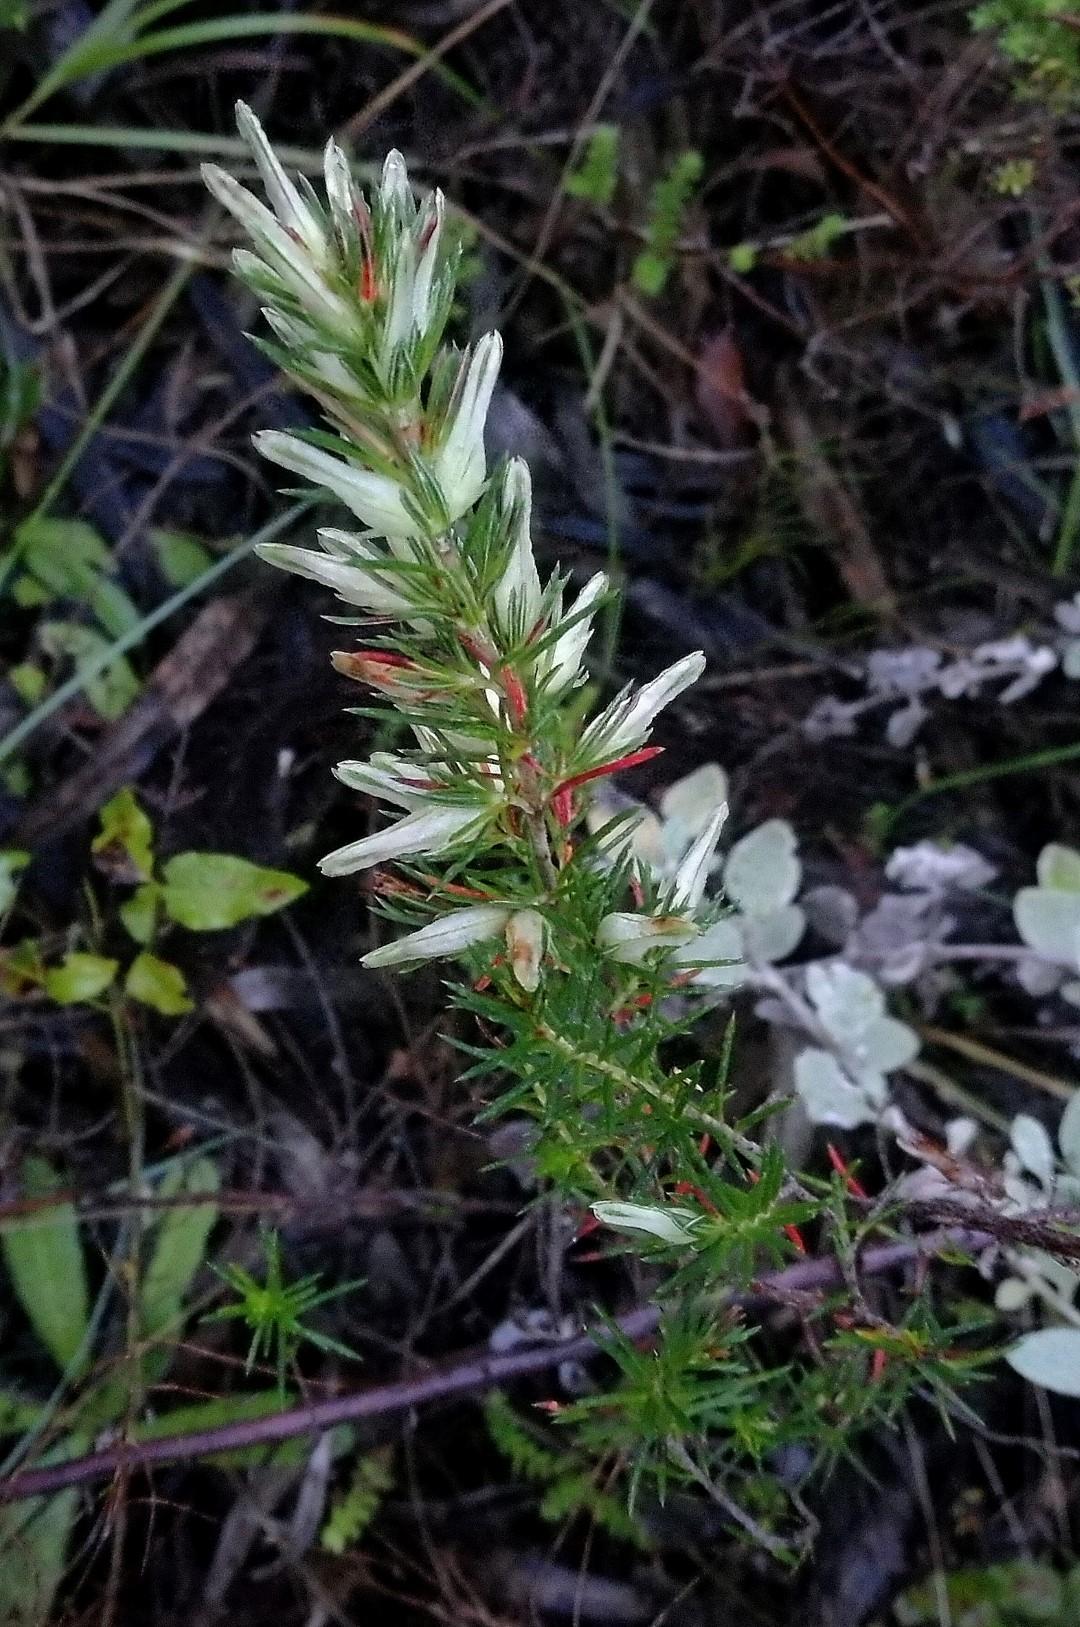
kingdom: Plantae
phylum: Tracheophyta
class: Magnoliopsida
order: Ericales
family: Ericaceae
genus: Erica
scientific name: Erica nabea
